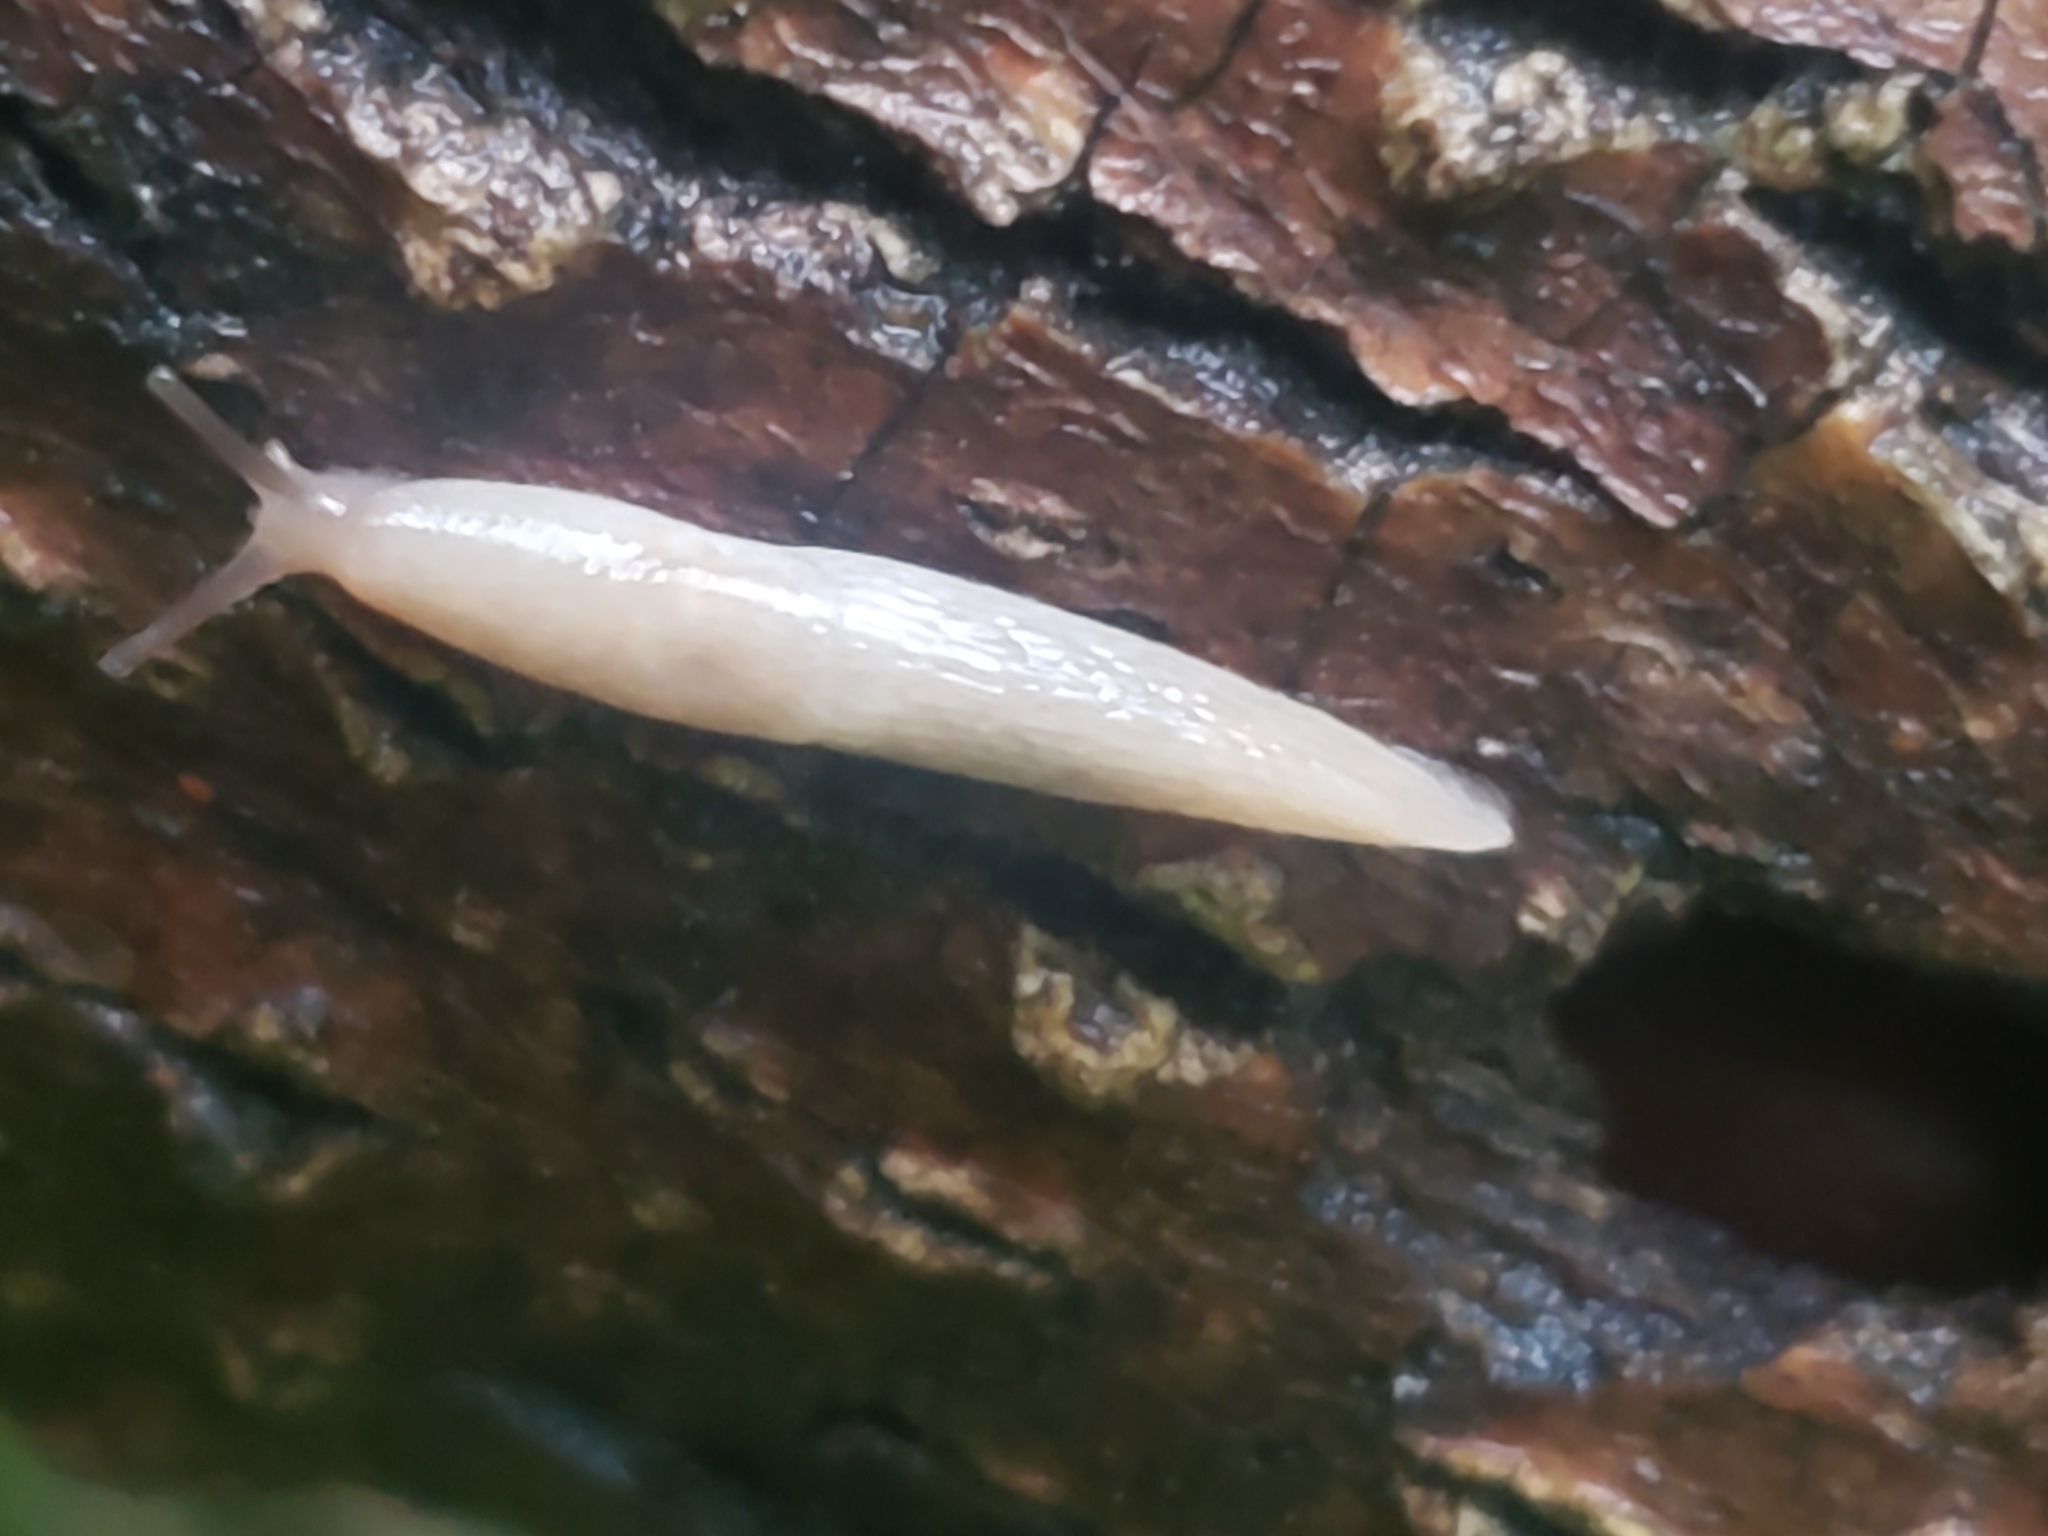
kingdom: Animalia
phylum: Mollusca
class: Gastropoda
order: Stylommatophora
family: Agriolimacidae
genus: Deroceras
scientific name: Deroceras reticulatum
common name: Gray field slug
